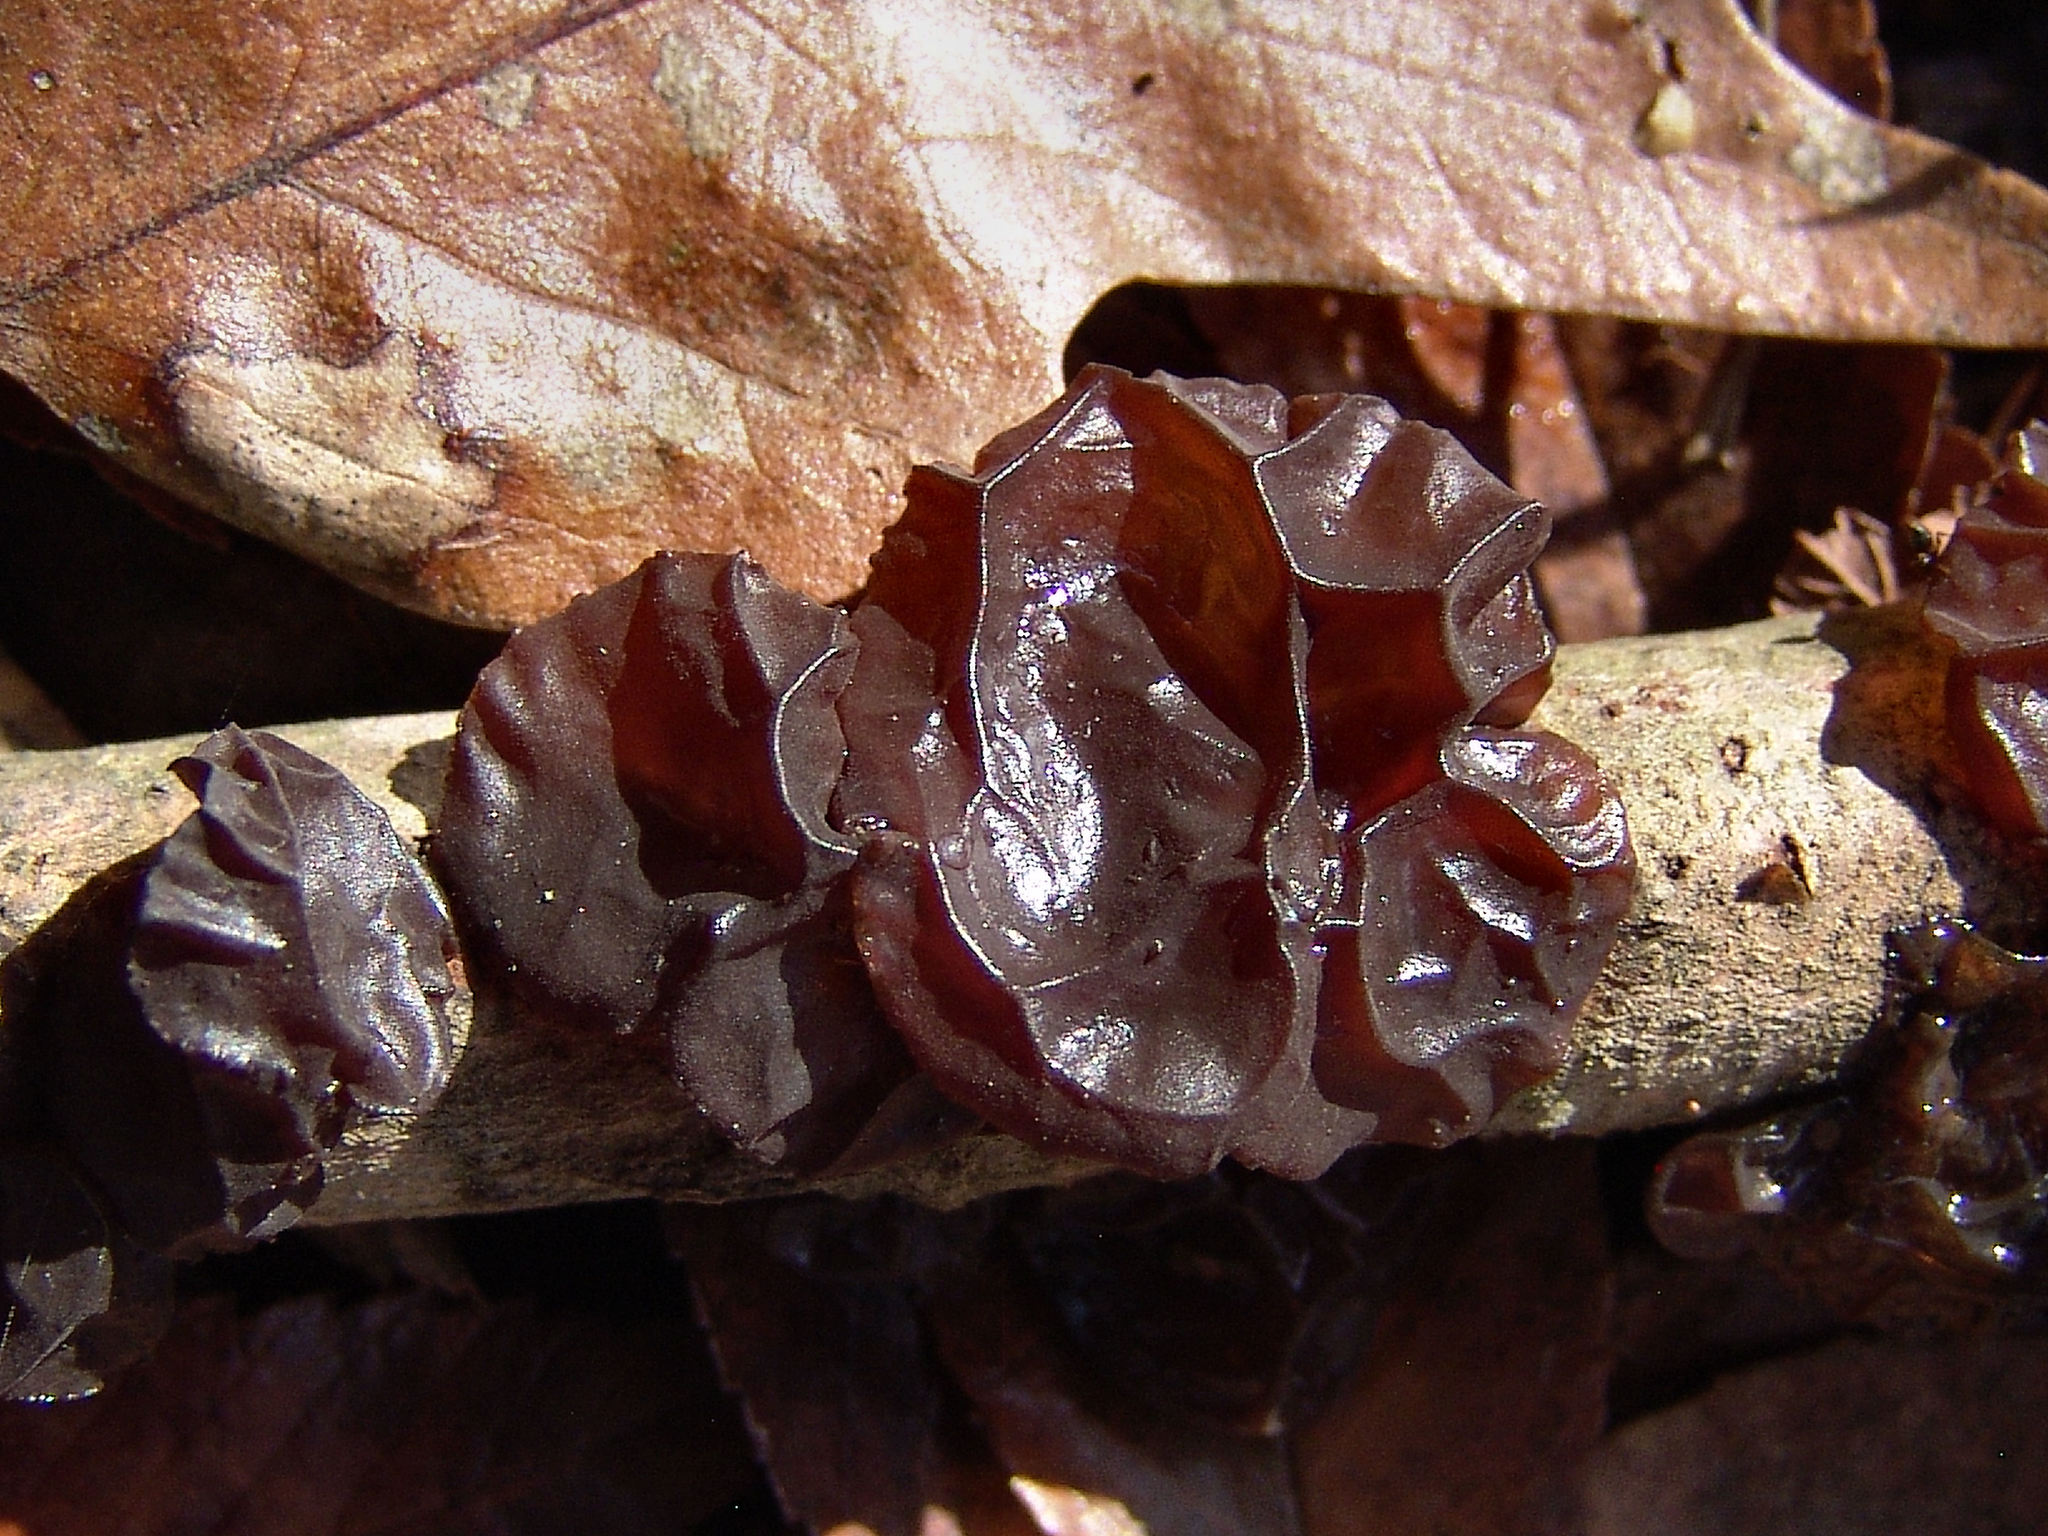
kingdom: Fungi
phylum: Basidiomycota
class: Agaricomycetes
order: Auriculariales
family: Auriculariaceae
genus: Exidia
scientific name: Exidia
